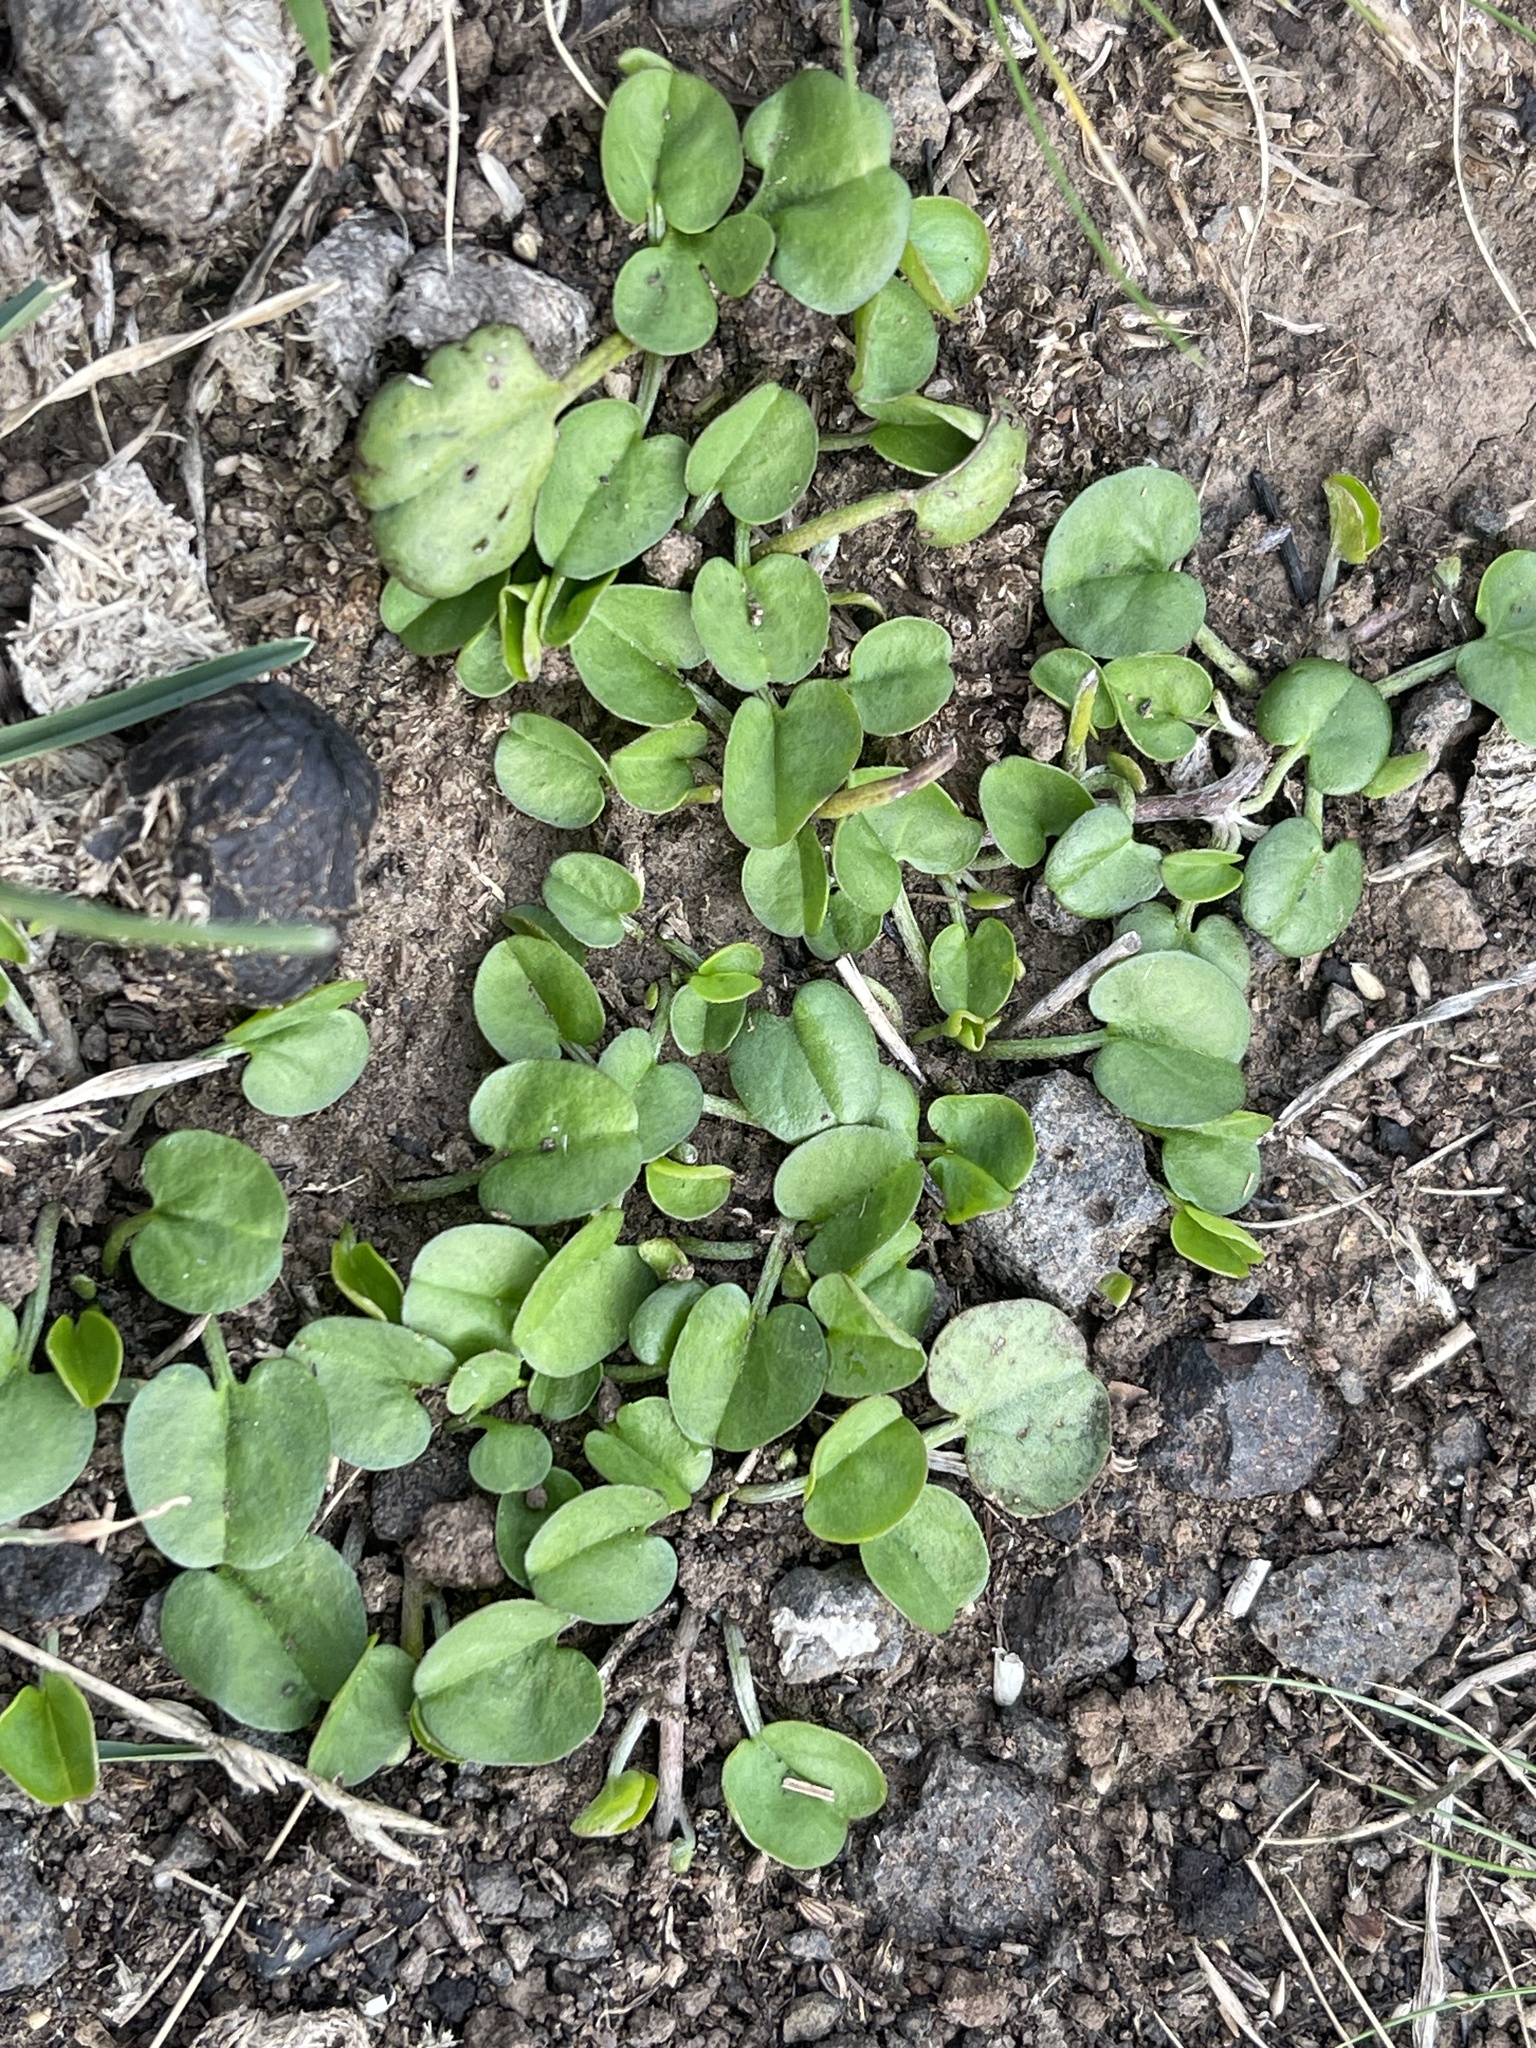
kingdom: Plantae
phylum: Tracheophyta
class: Magnoliopsida
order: Solanales
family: Convolvulaceae
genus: Dichondra
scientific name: Dichondra repens
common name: Kidneyweed
